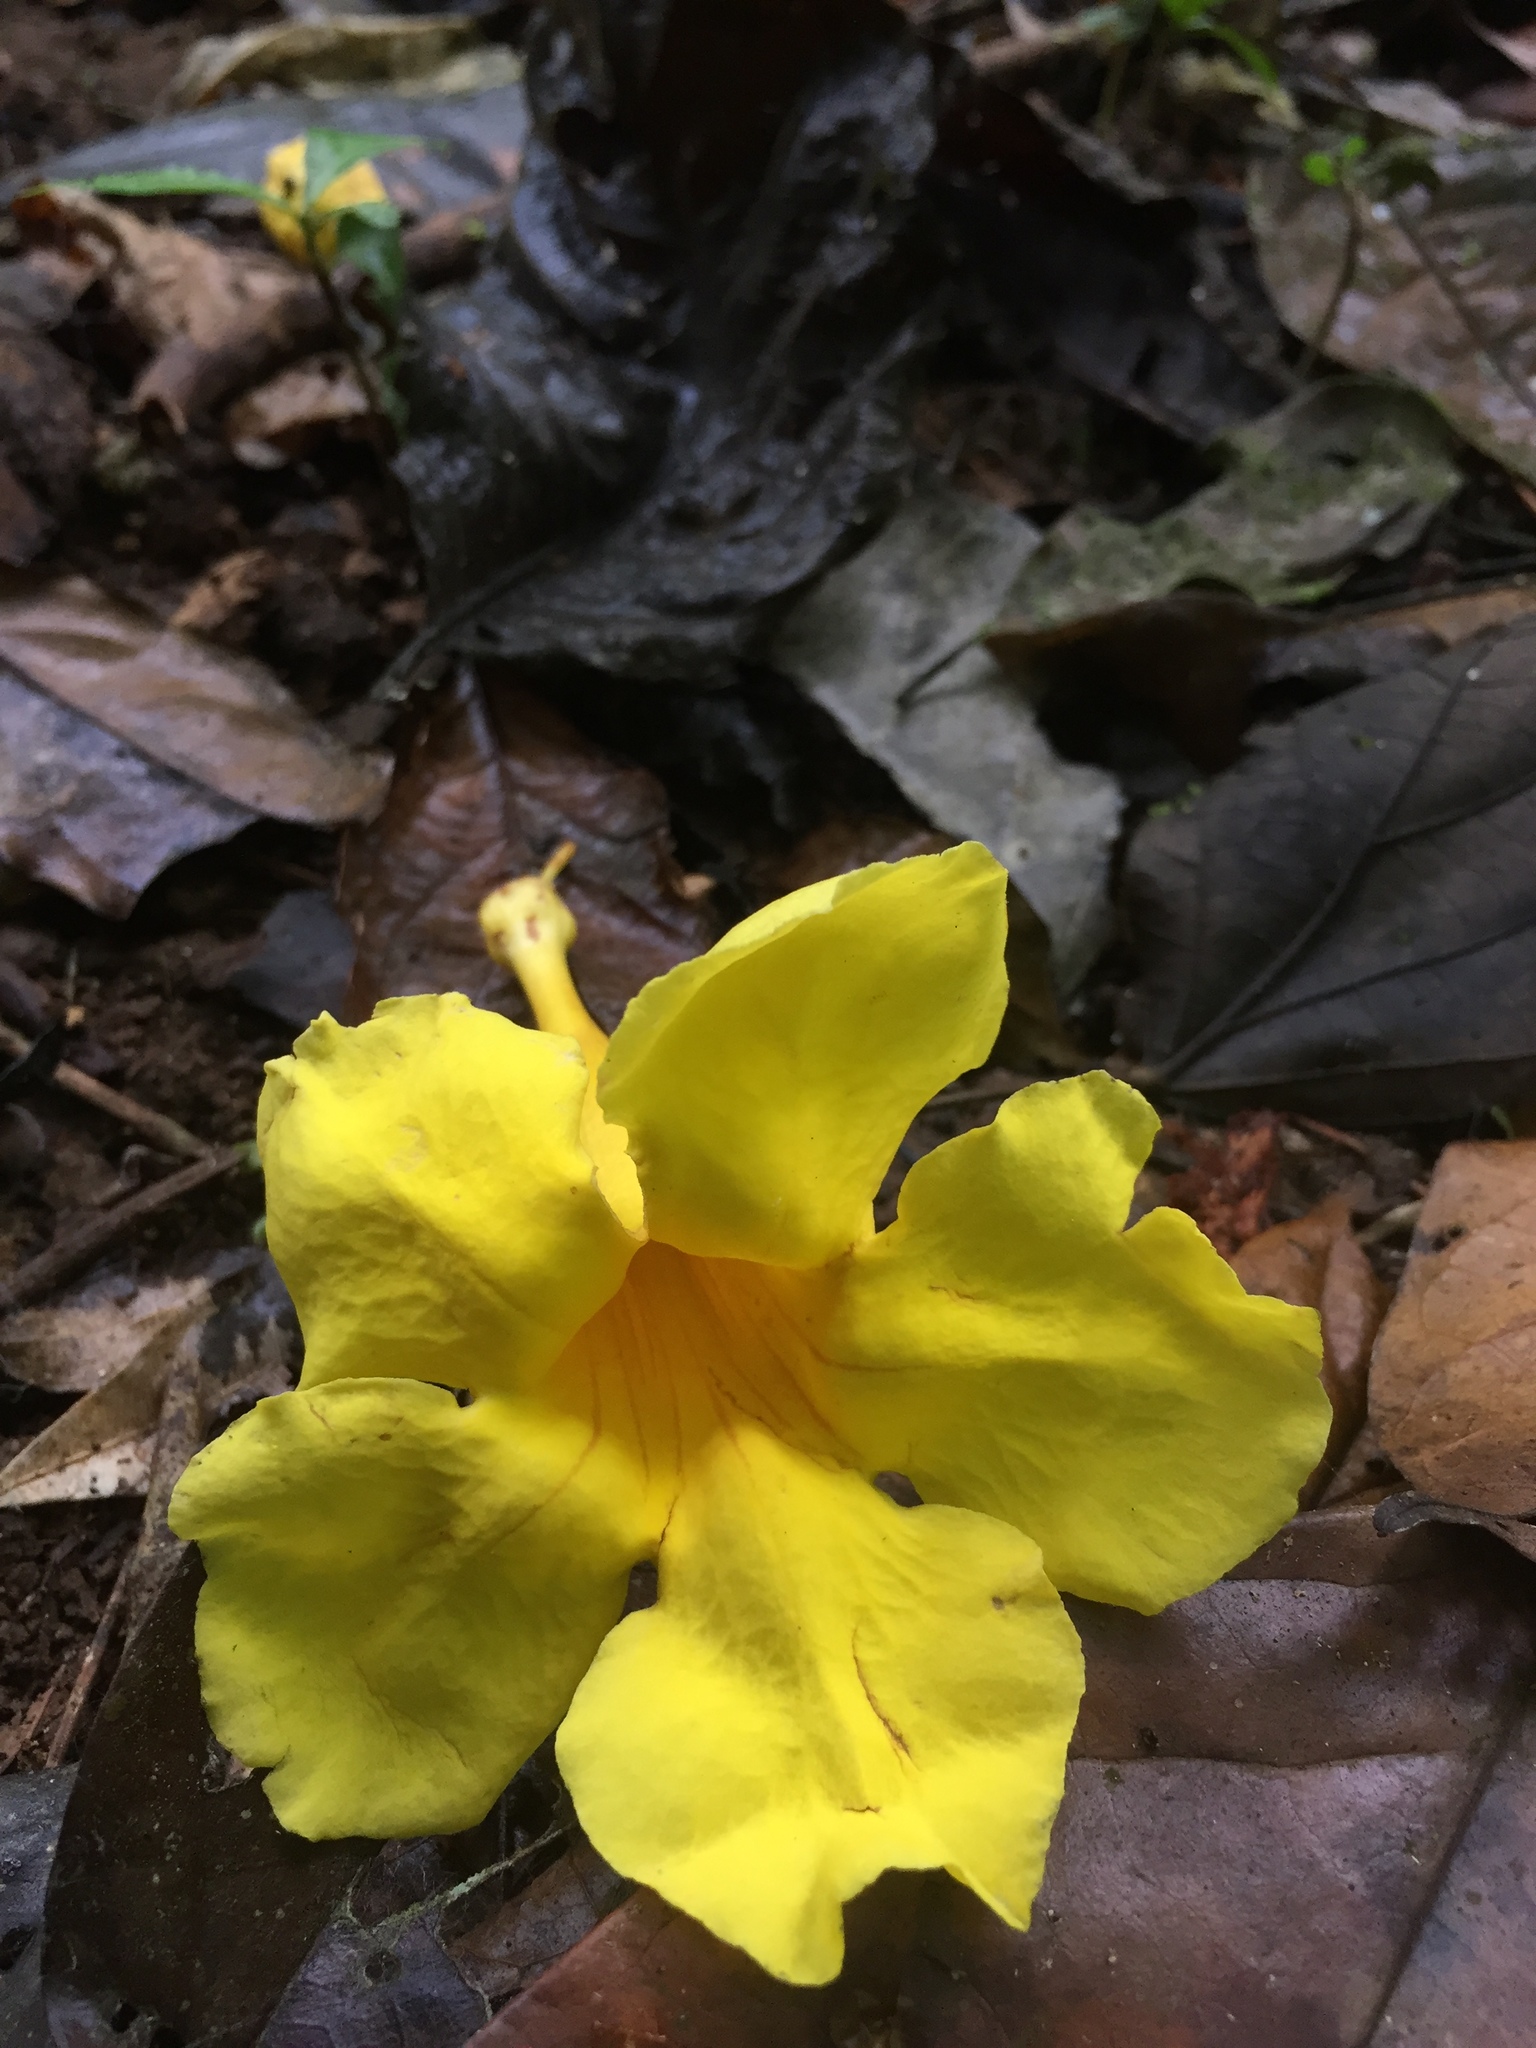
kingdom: Plantae
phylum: Tracheophyta
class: Magnoliopsida
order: Lamiales
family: Bignoniaceae
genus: Handroanthus
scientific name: Handroanthus guayacan
